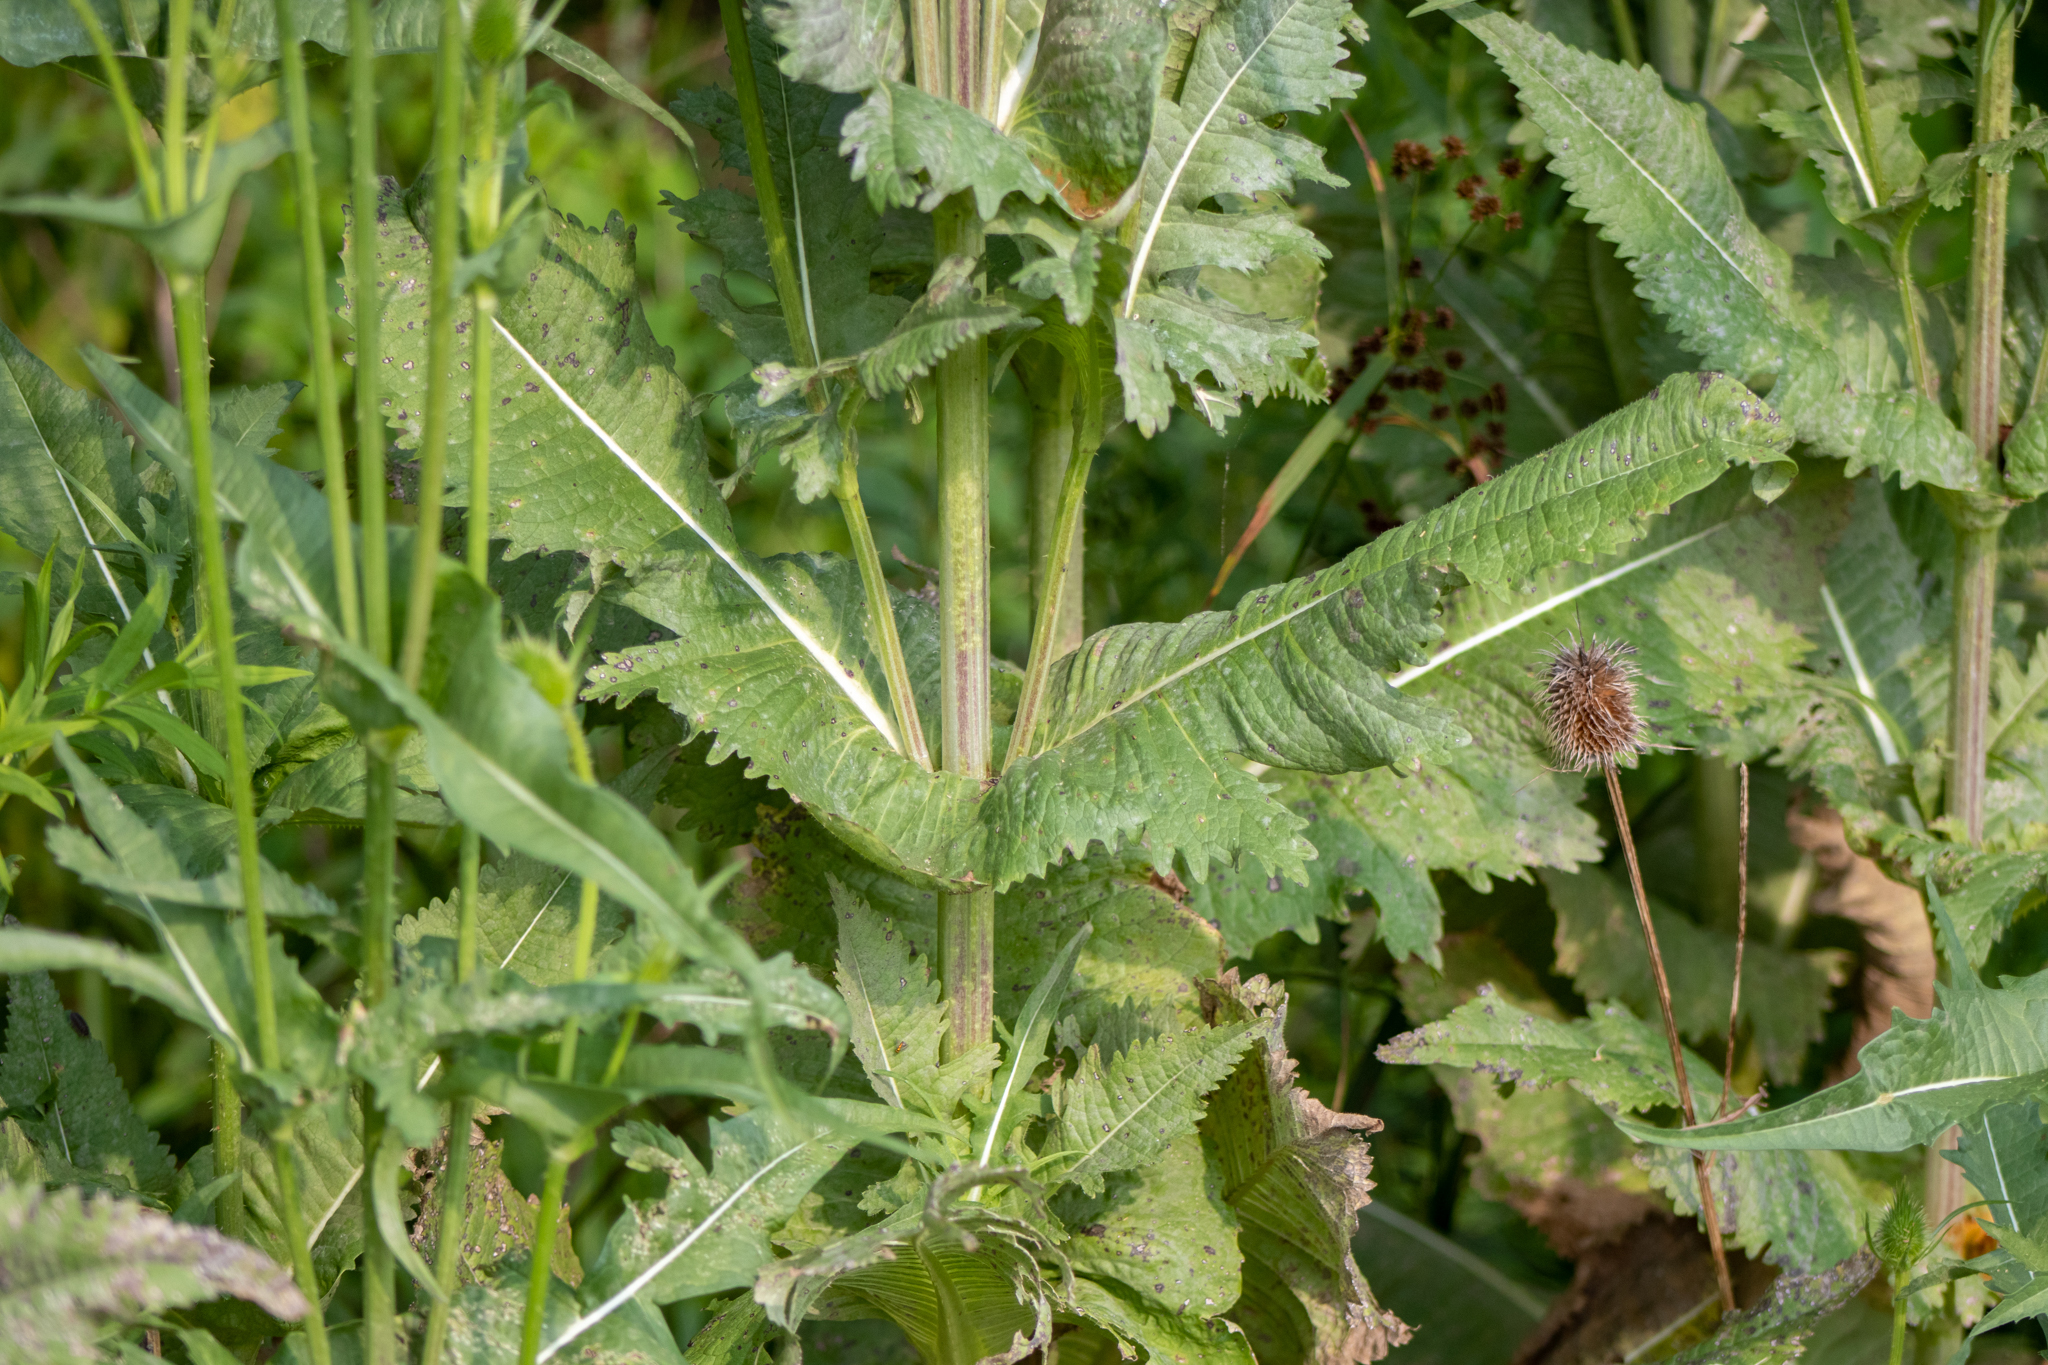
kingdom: Plantae
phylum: Tracheophyta
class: Magnoliopsida
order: Dipsacales
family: Caprifoliaceae
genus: Dipsacus
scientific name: Dipsacus laciniatus
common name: Cut-leaved teasel
